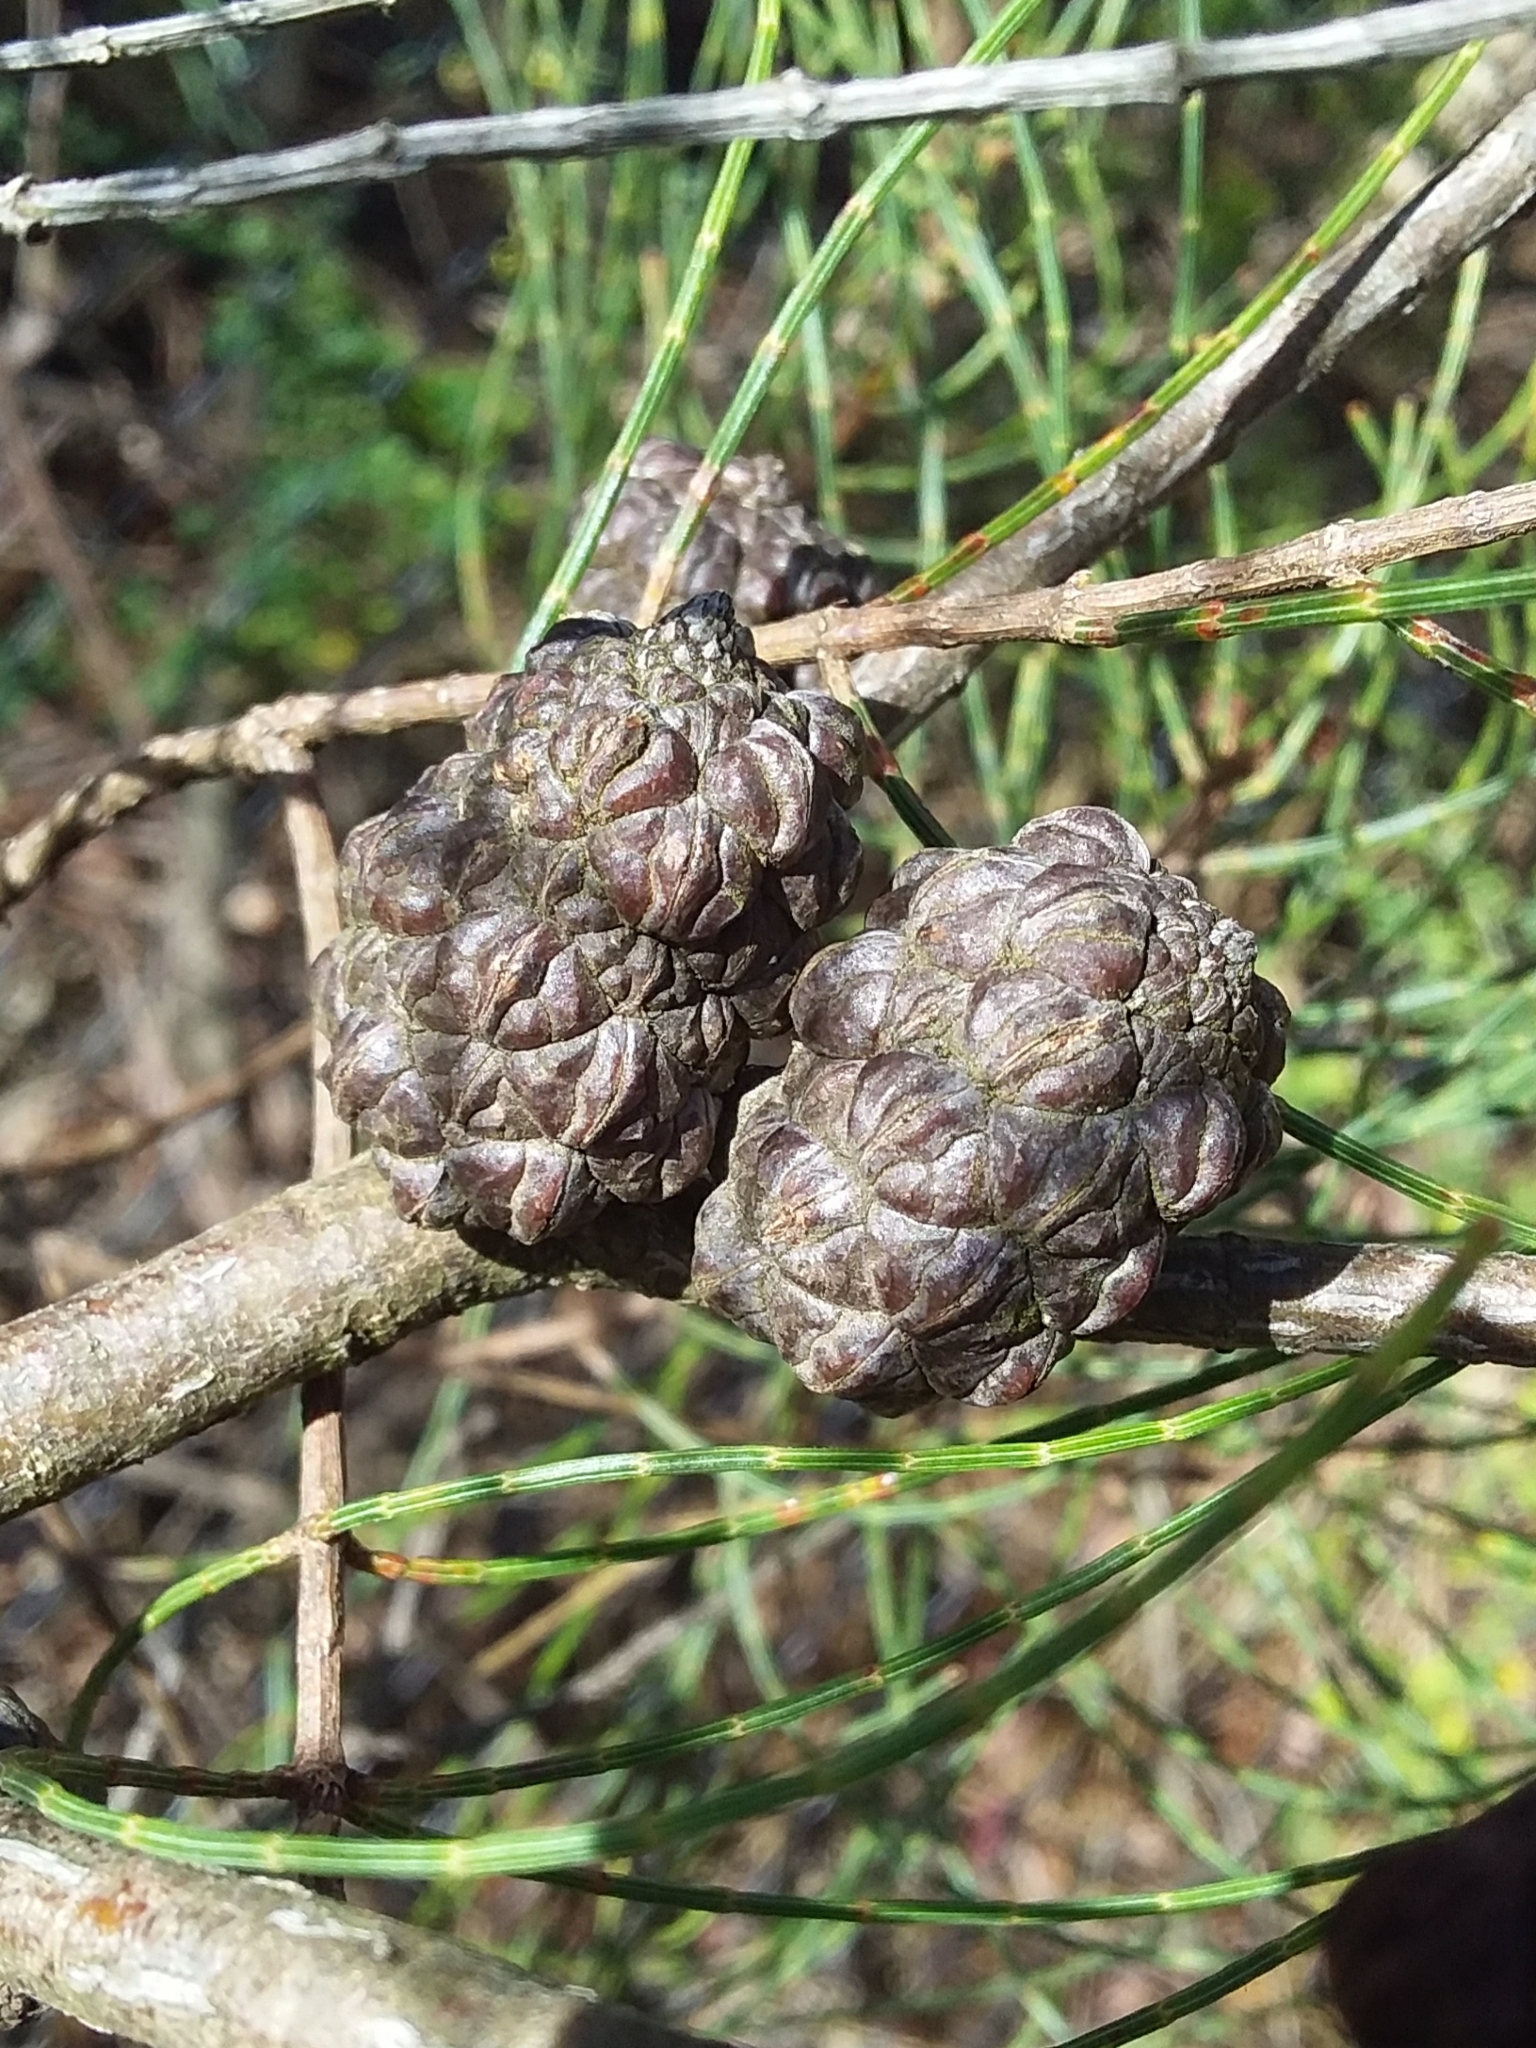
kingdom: Plantae
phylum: Tracheophyta
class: Magnoliopsida
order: Fagales
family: Casuarinaceae
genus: Allocasuarina
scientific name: Allocasuarina muelleriana
